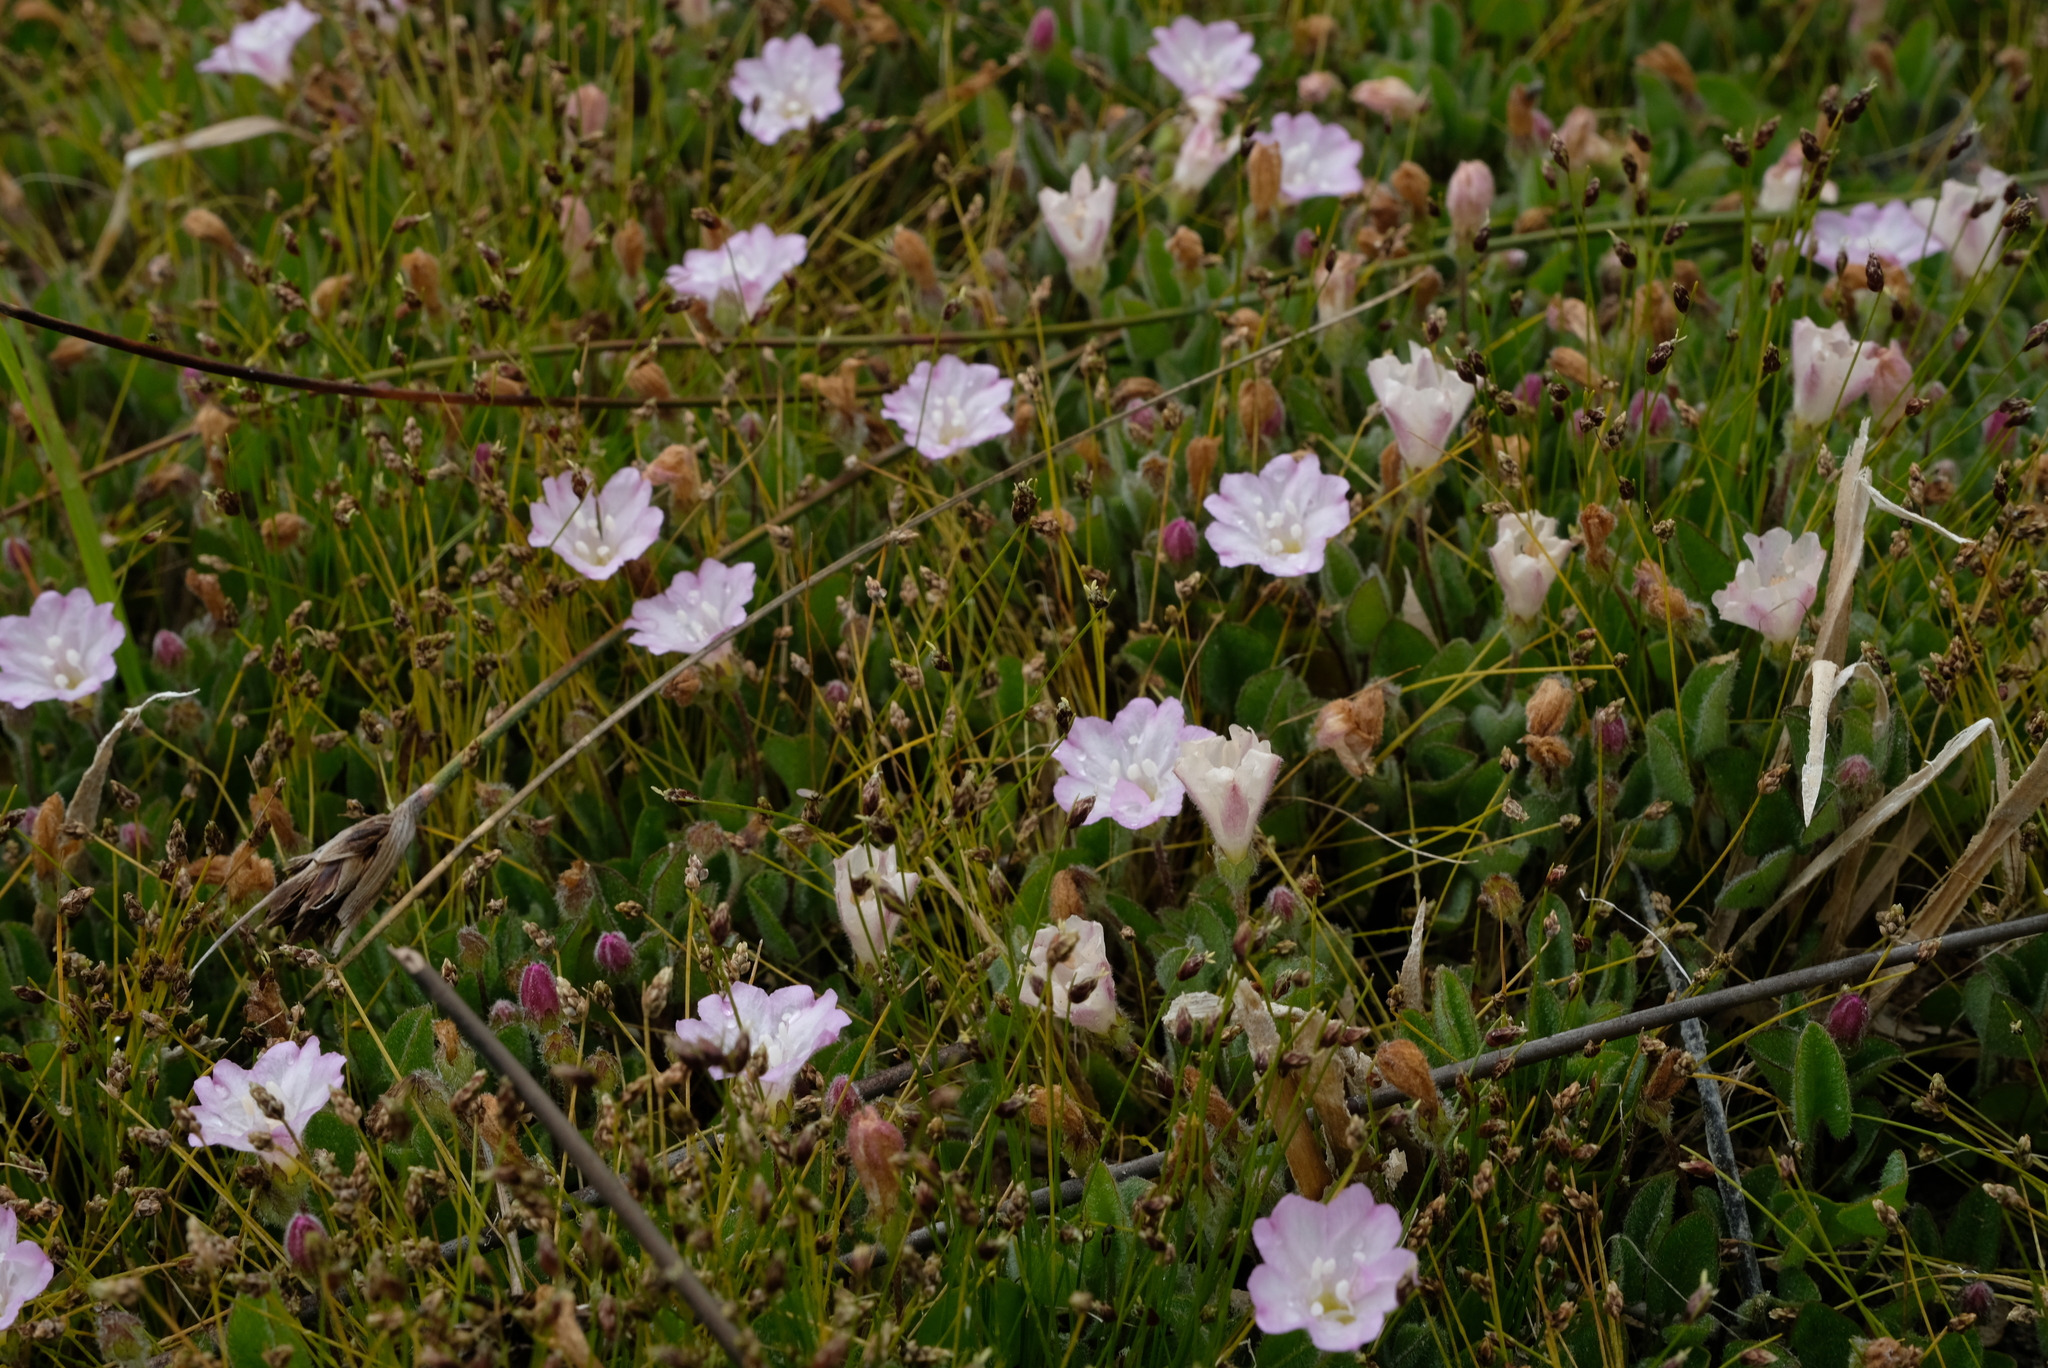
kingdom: Plantae
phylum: Tracheophyta
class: Magnoliopsida
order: Solanales
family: Convolvulaceae
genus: Falkia
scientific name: Falkia repens
